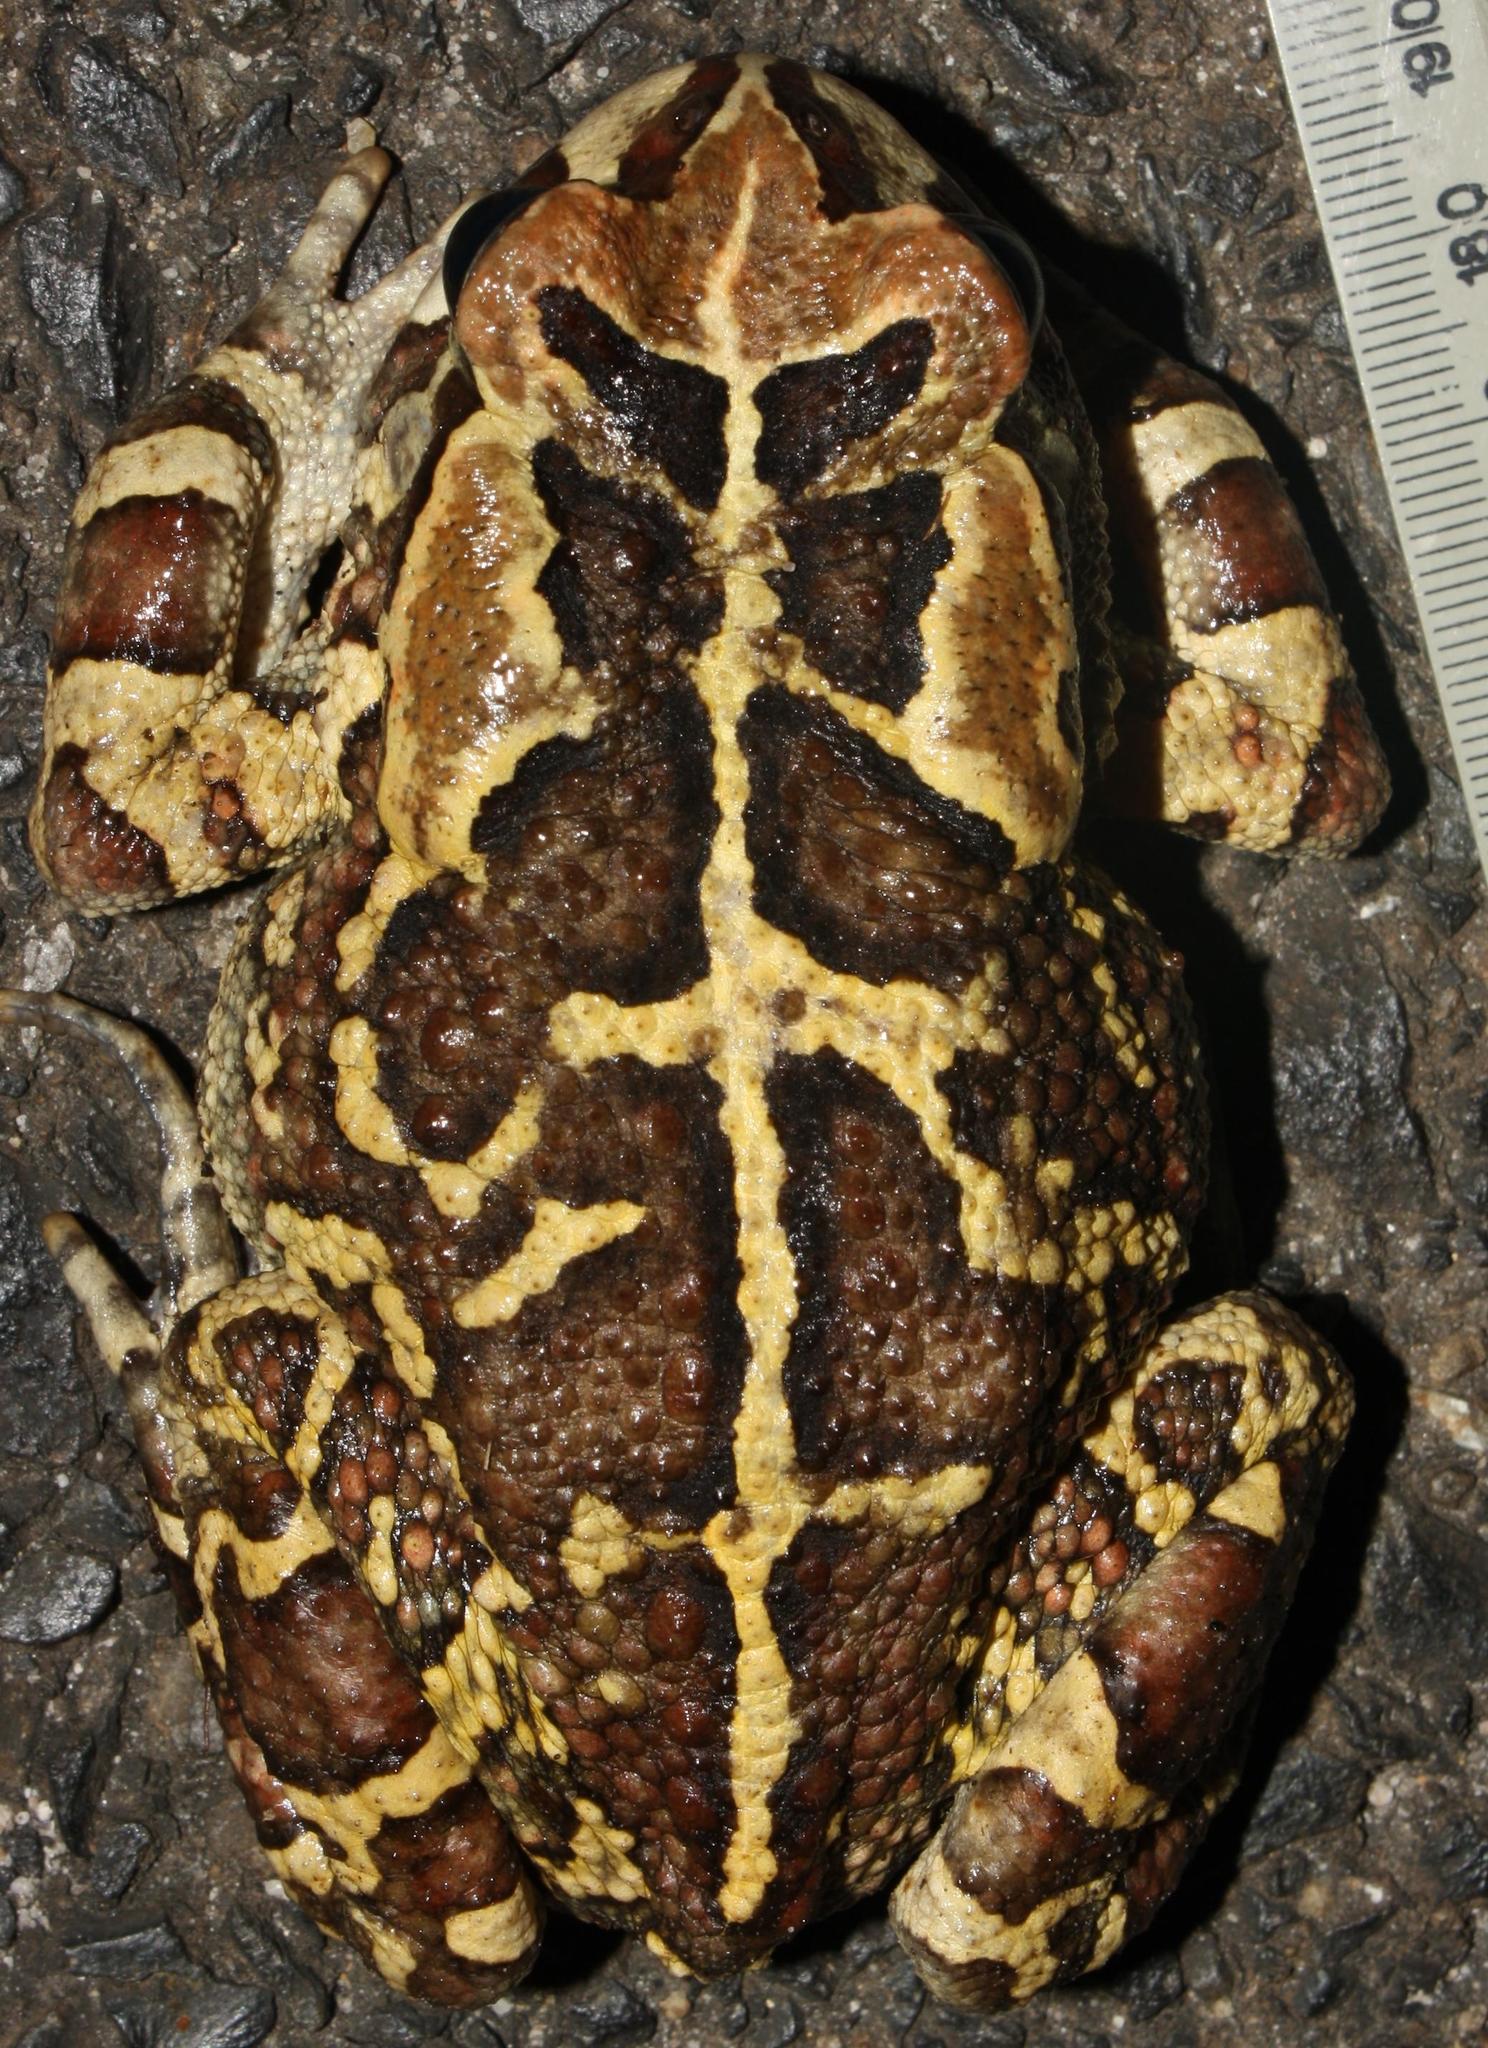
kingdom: Animalia
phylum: Chordata
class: Amphibia
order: Anura
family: Bufonidae
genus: Sclerophrys
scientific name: Sclerophrys pantherina
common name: Panther toad
